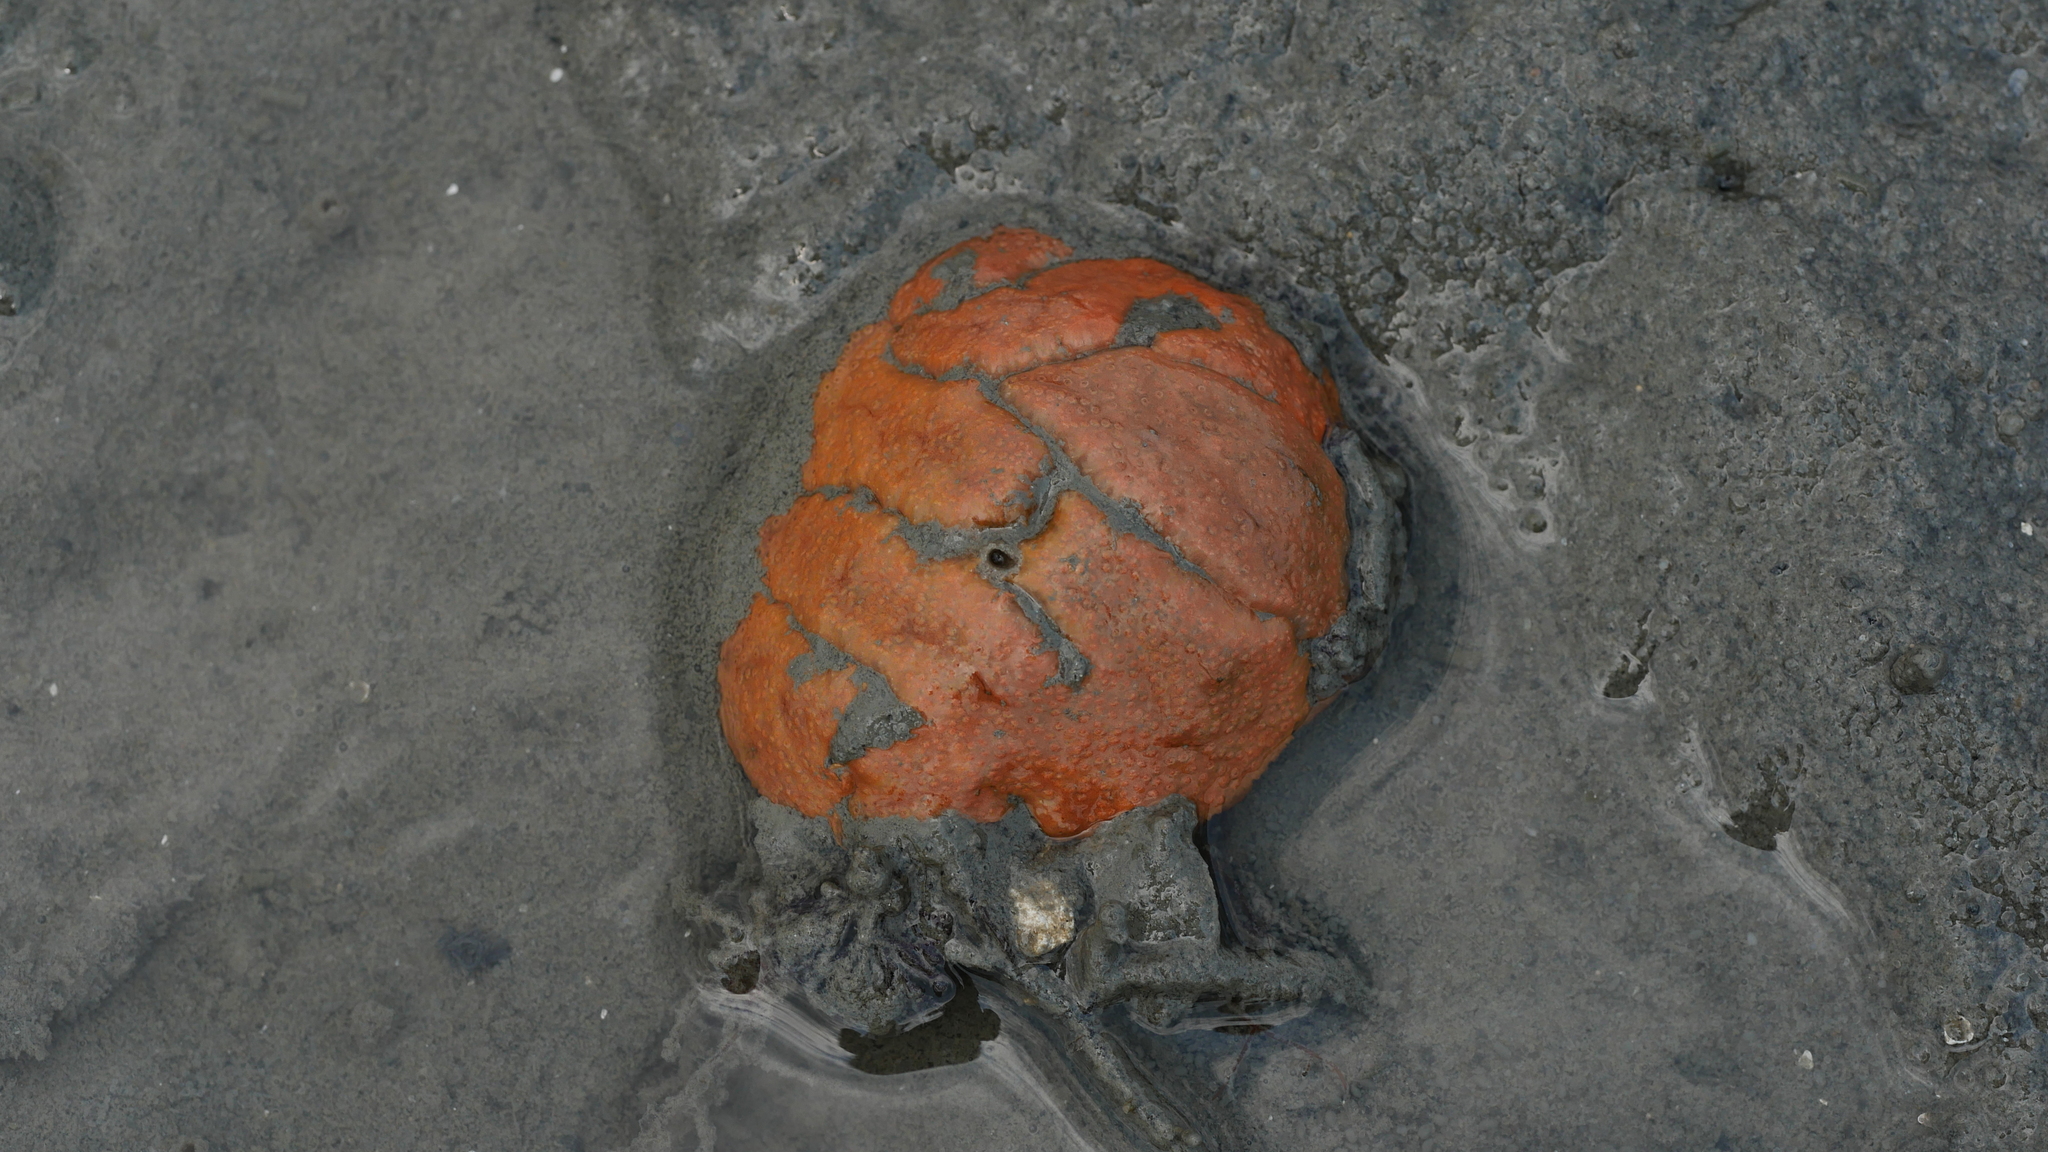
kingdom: Animalia
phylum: Chordata
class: Ascidiacea
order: Aplousobranchia
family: Polyclinidae
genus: Aplidium
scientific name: Aplidium stellatum
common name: Atlantic sea pork
